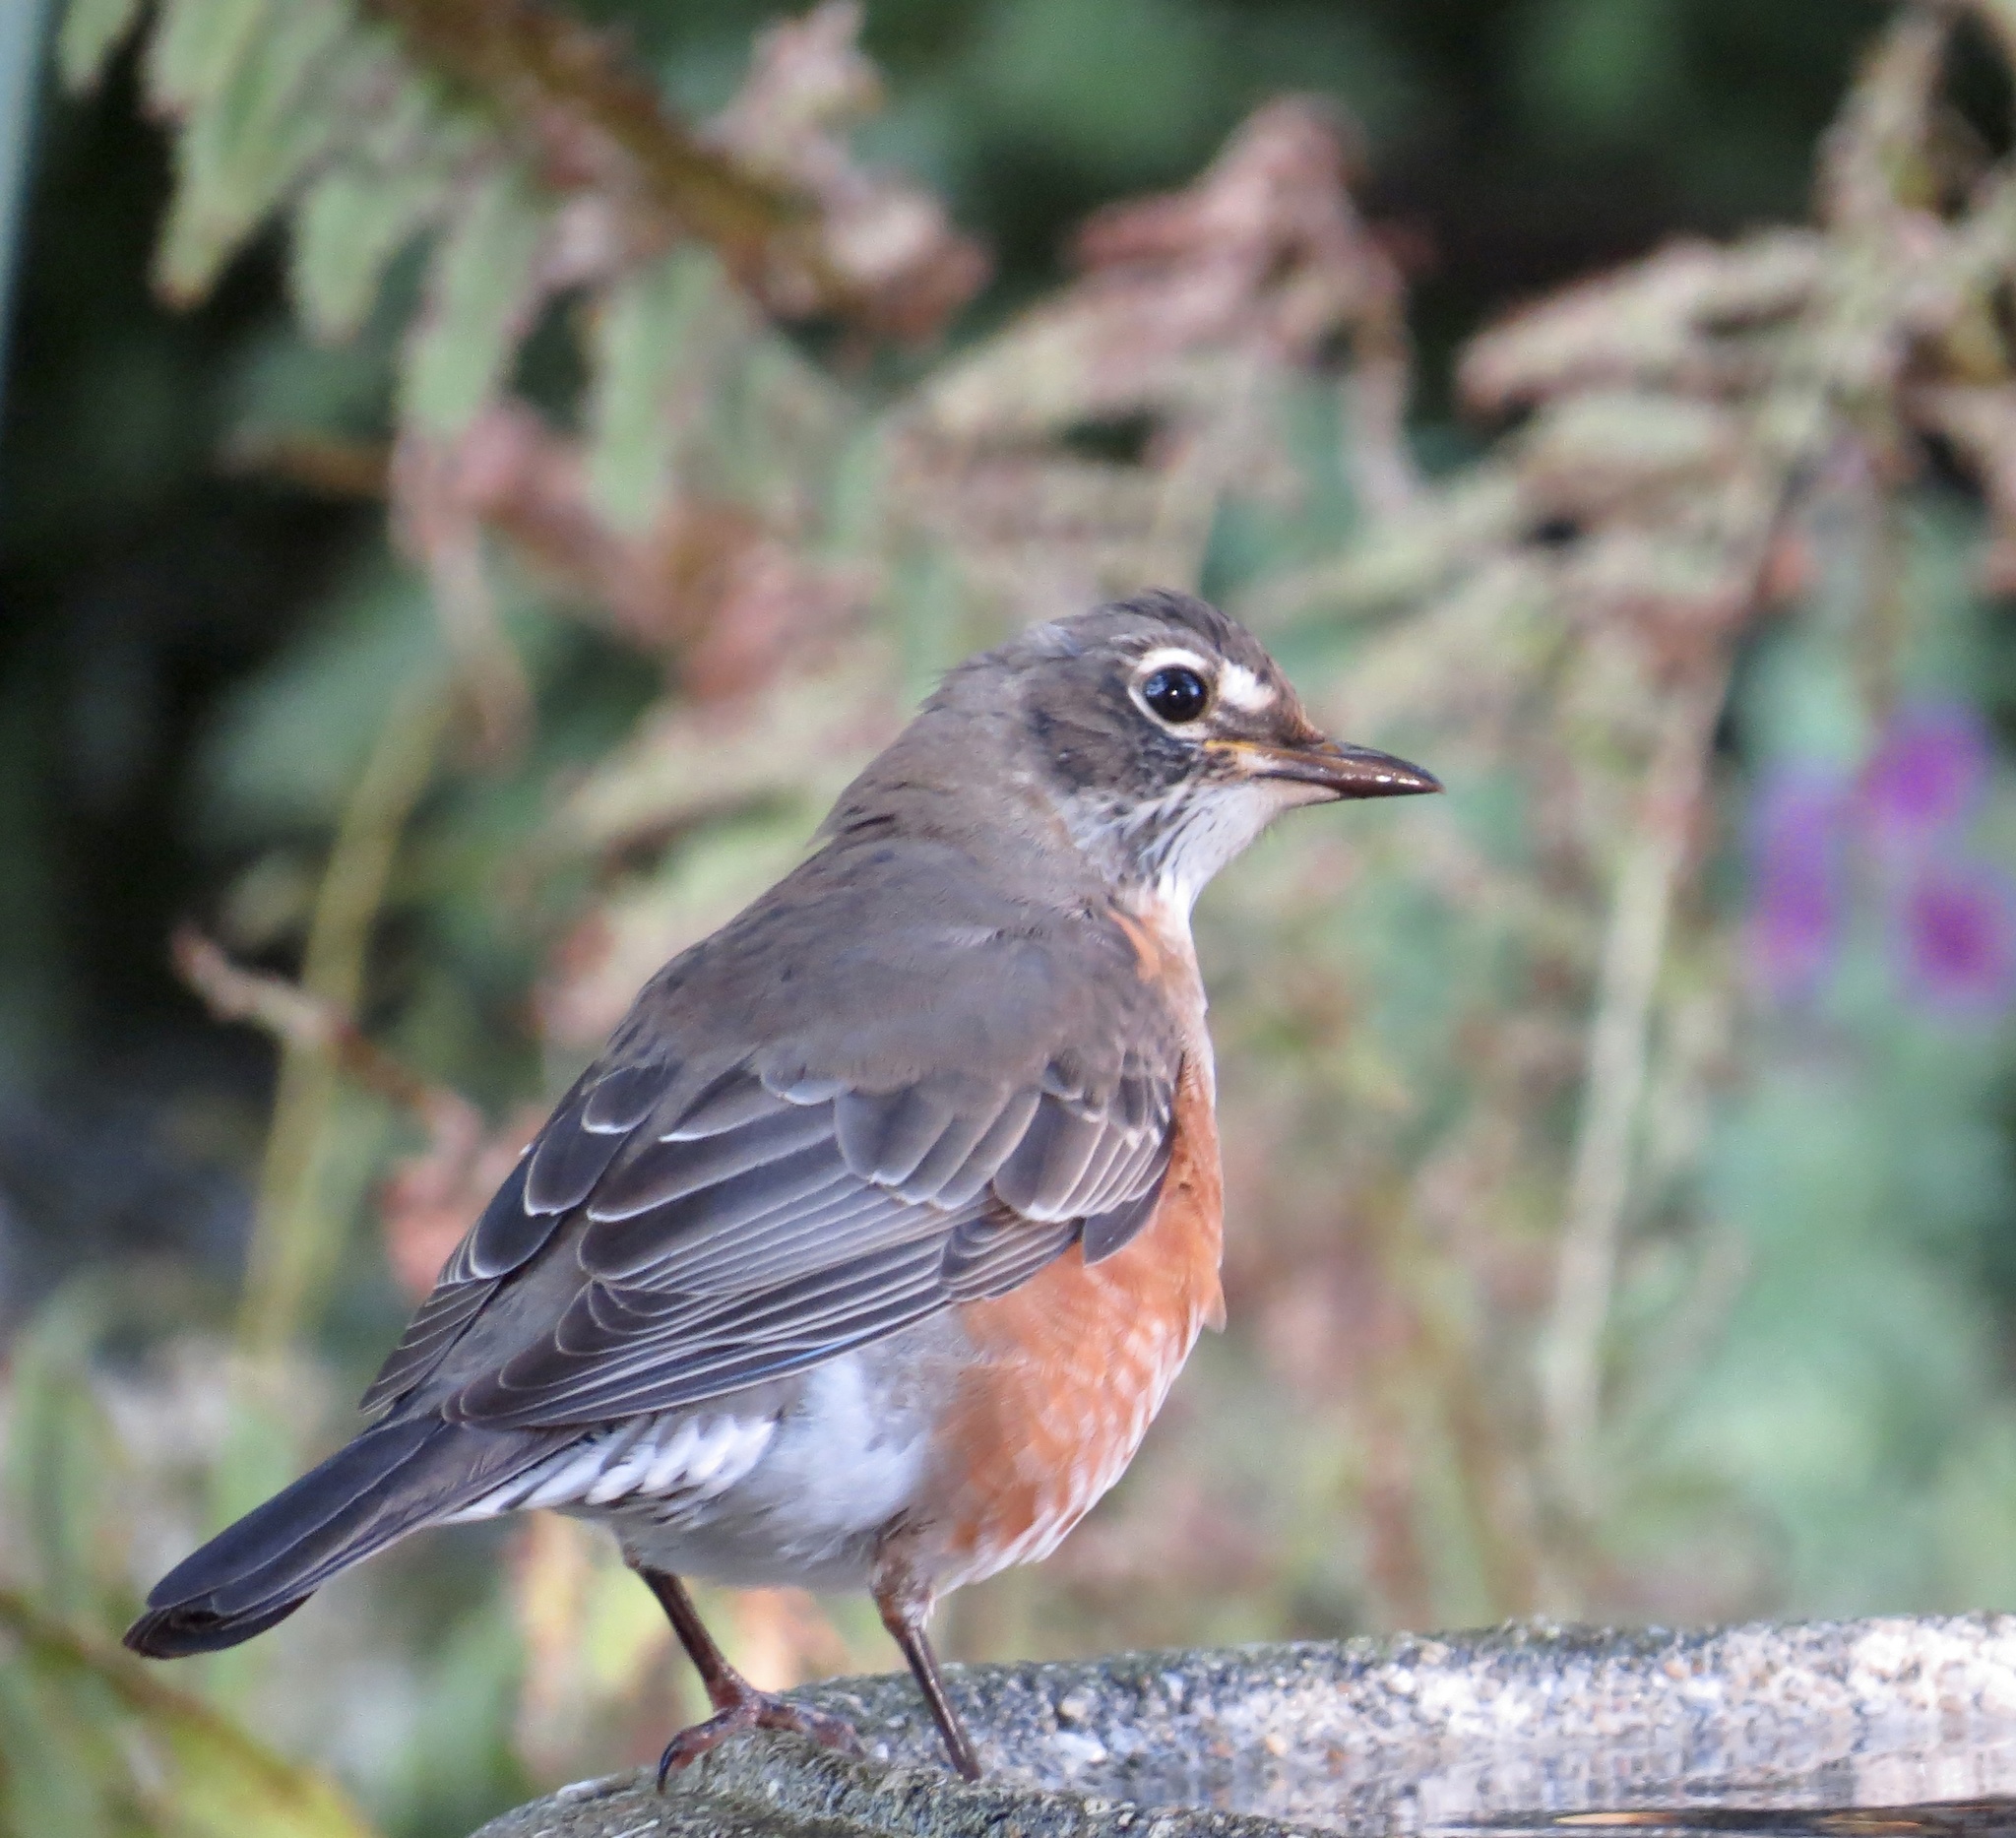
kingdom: Animalia
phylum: Chordata
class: Aves
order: Passeriformes
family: Turdidae
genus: Turdus
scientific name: Turdus migratorius
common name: American robin
